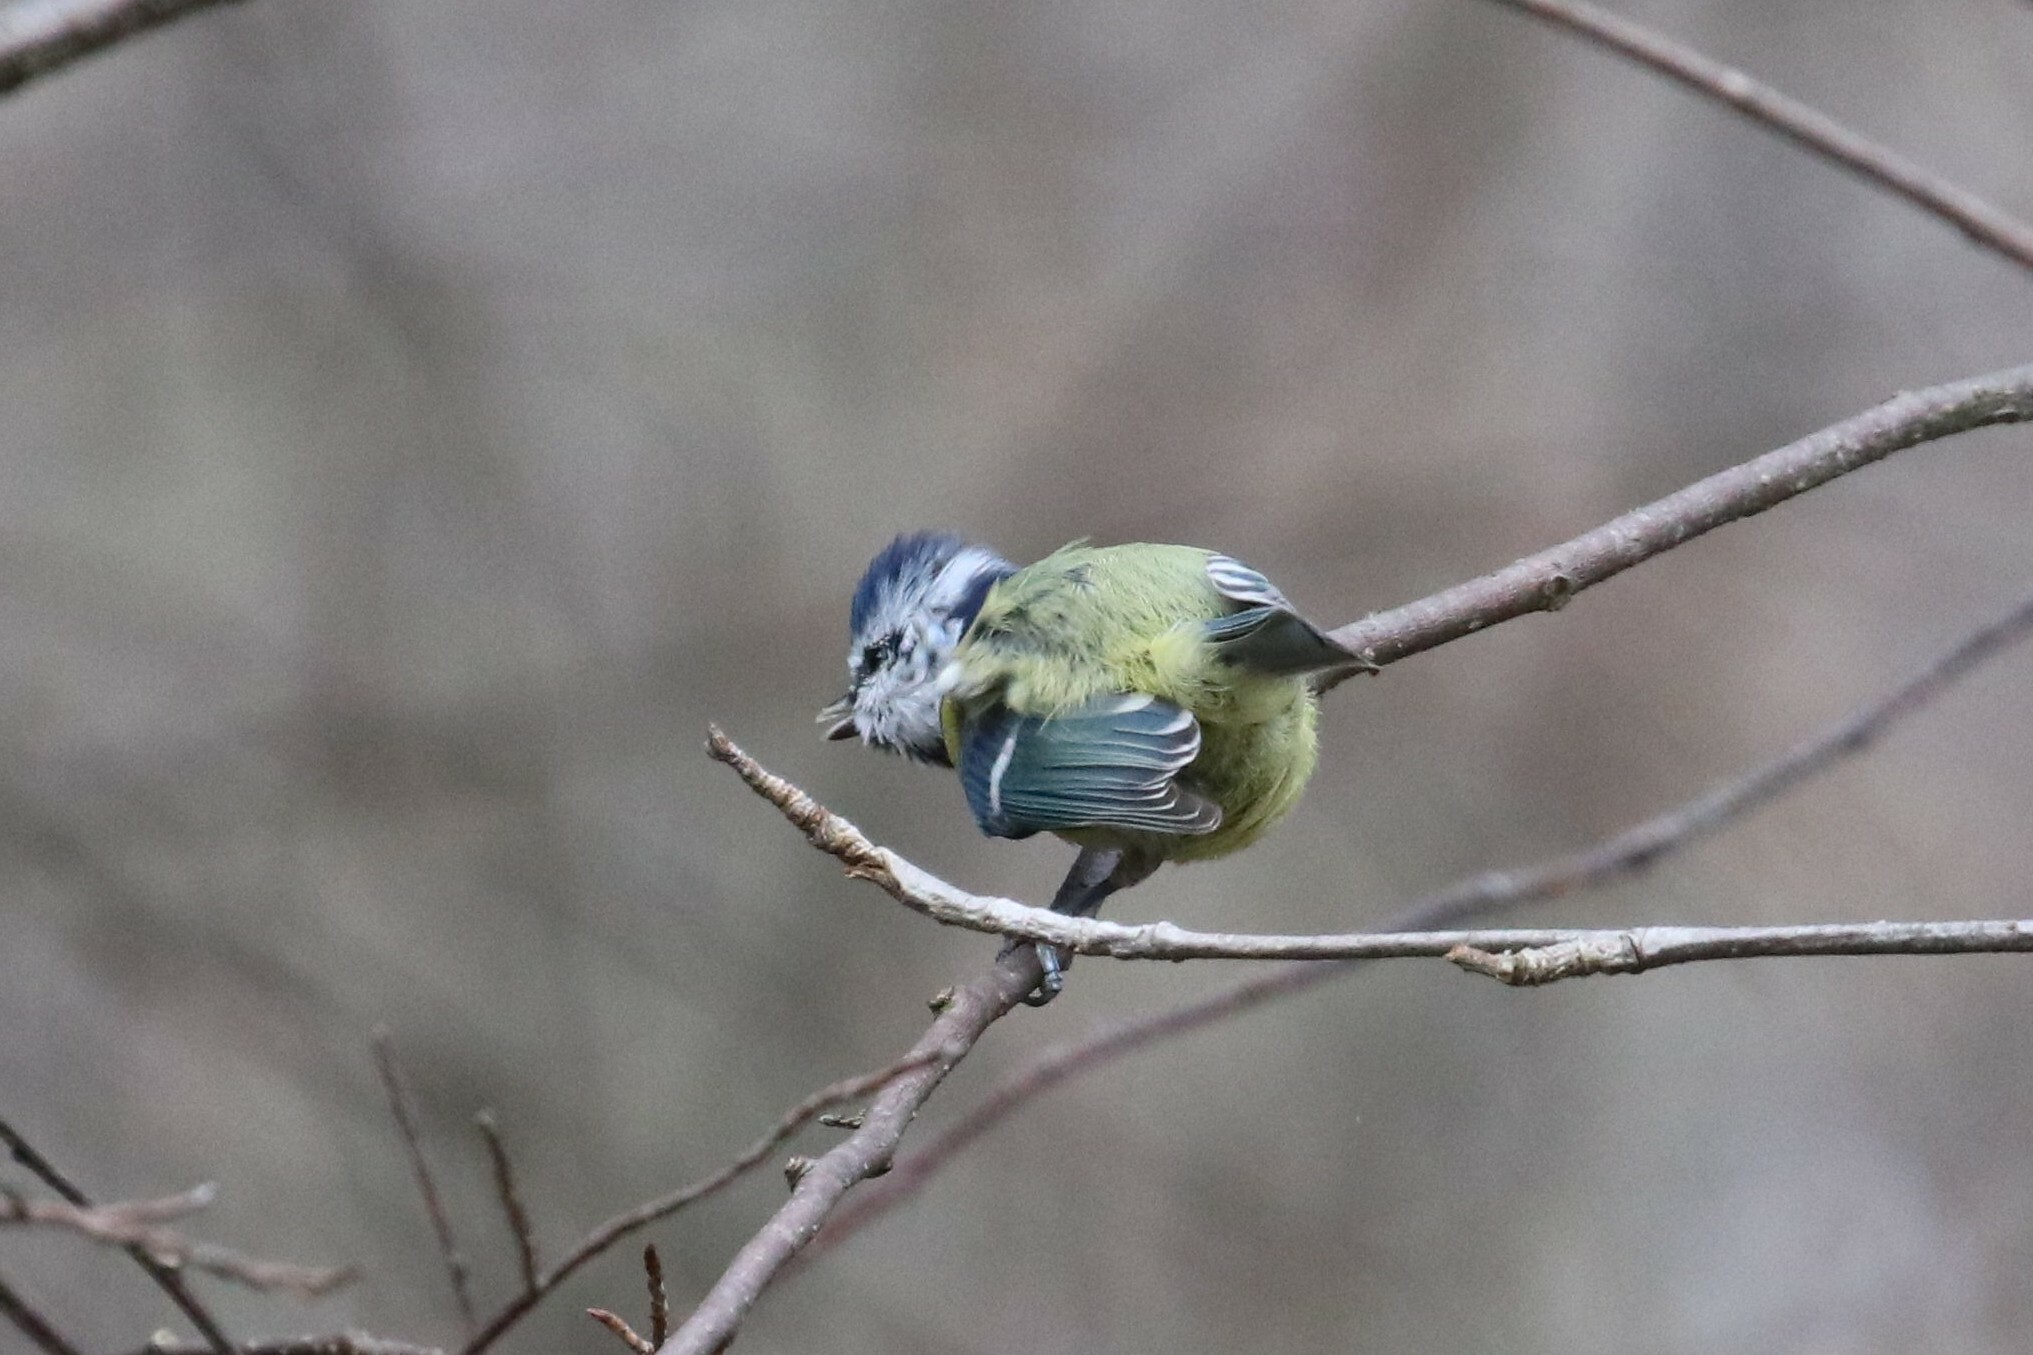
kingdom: Animalia
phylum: Chordata
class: Aves
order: Passeriformes
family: Paridae
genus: Cyanistes
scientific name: Cyanistes caeruleus
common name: Eurasian blue tit
